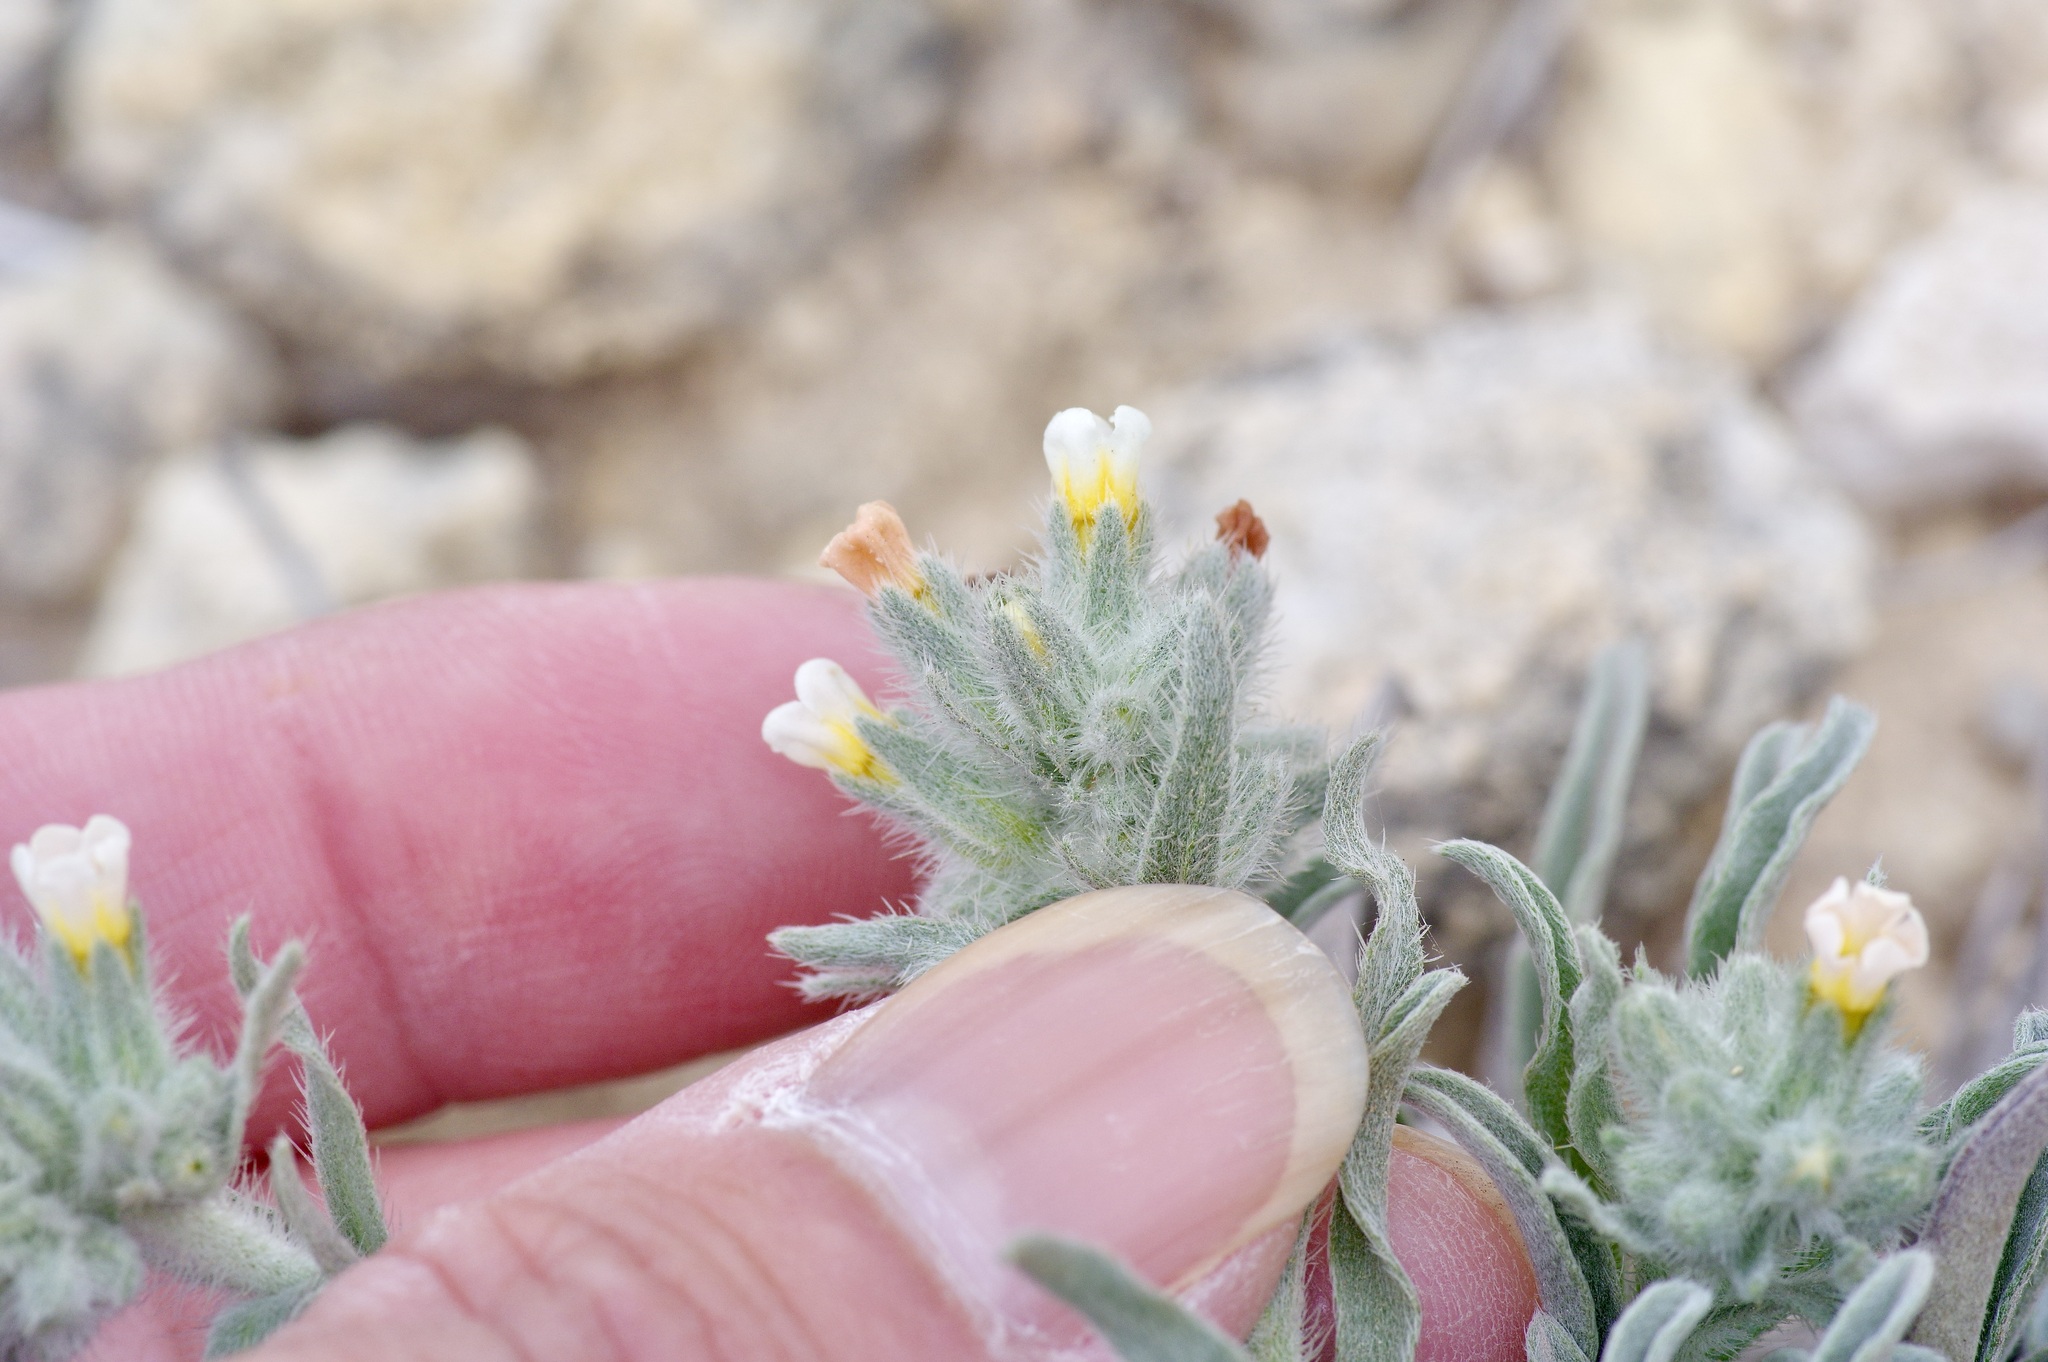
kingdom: Plantae
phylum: Tracheophyta
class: Magnoliopsida
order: Boraginales
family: Boraginaceae
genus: Oreocarya
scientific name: Oreocarya palmeri
